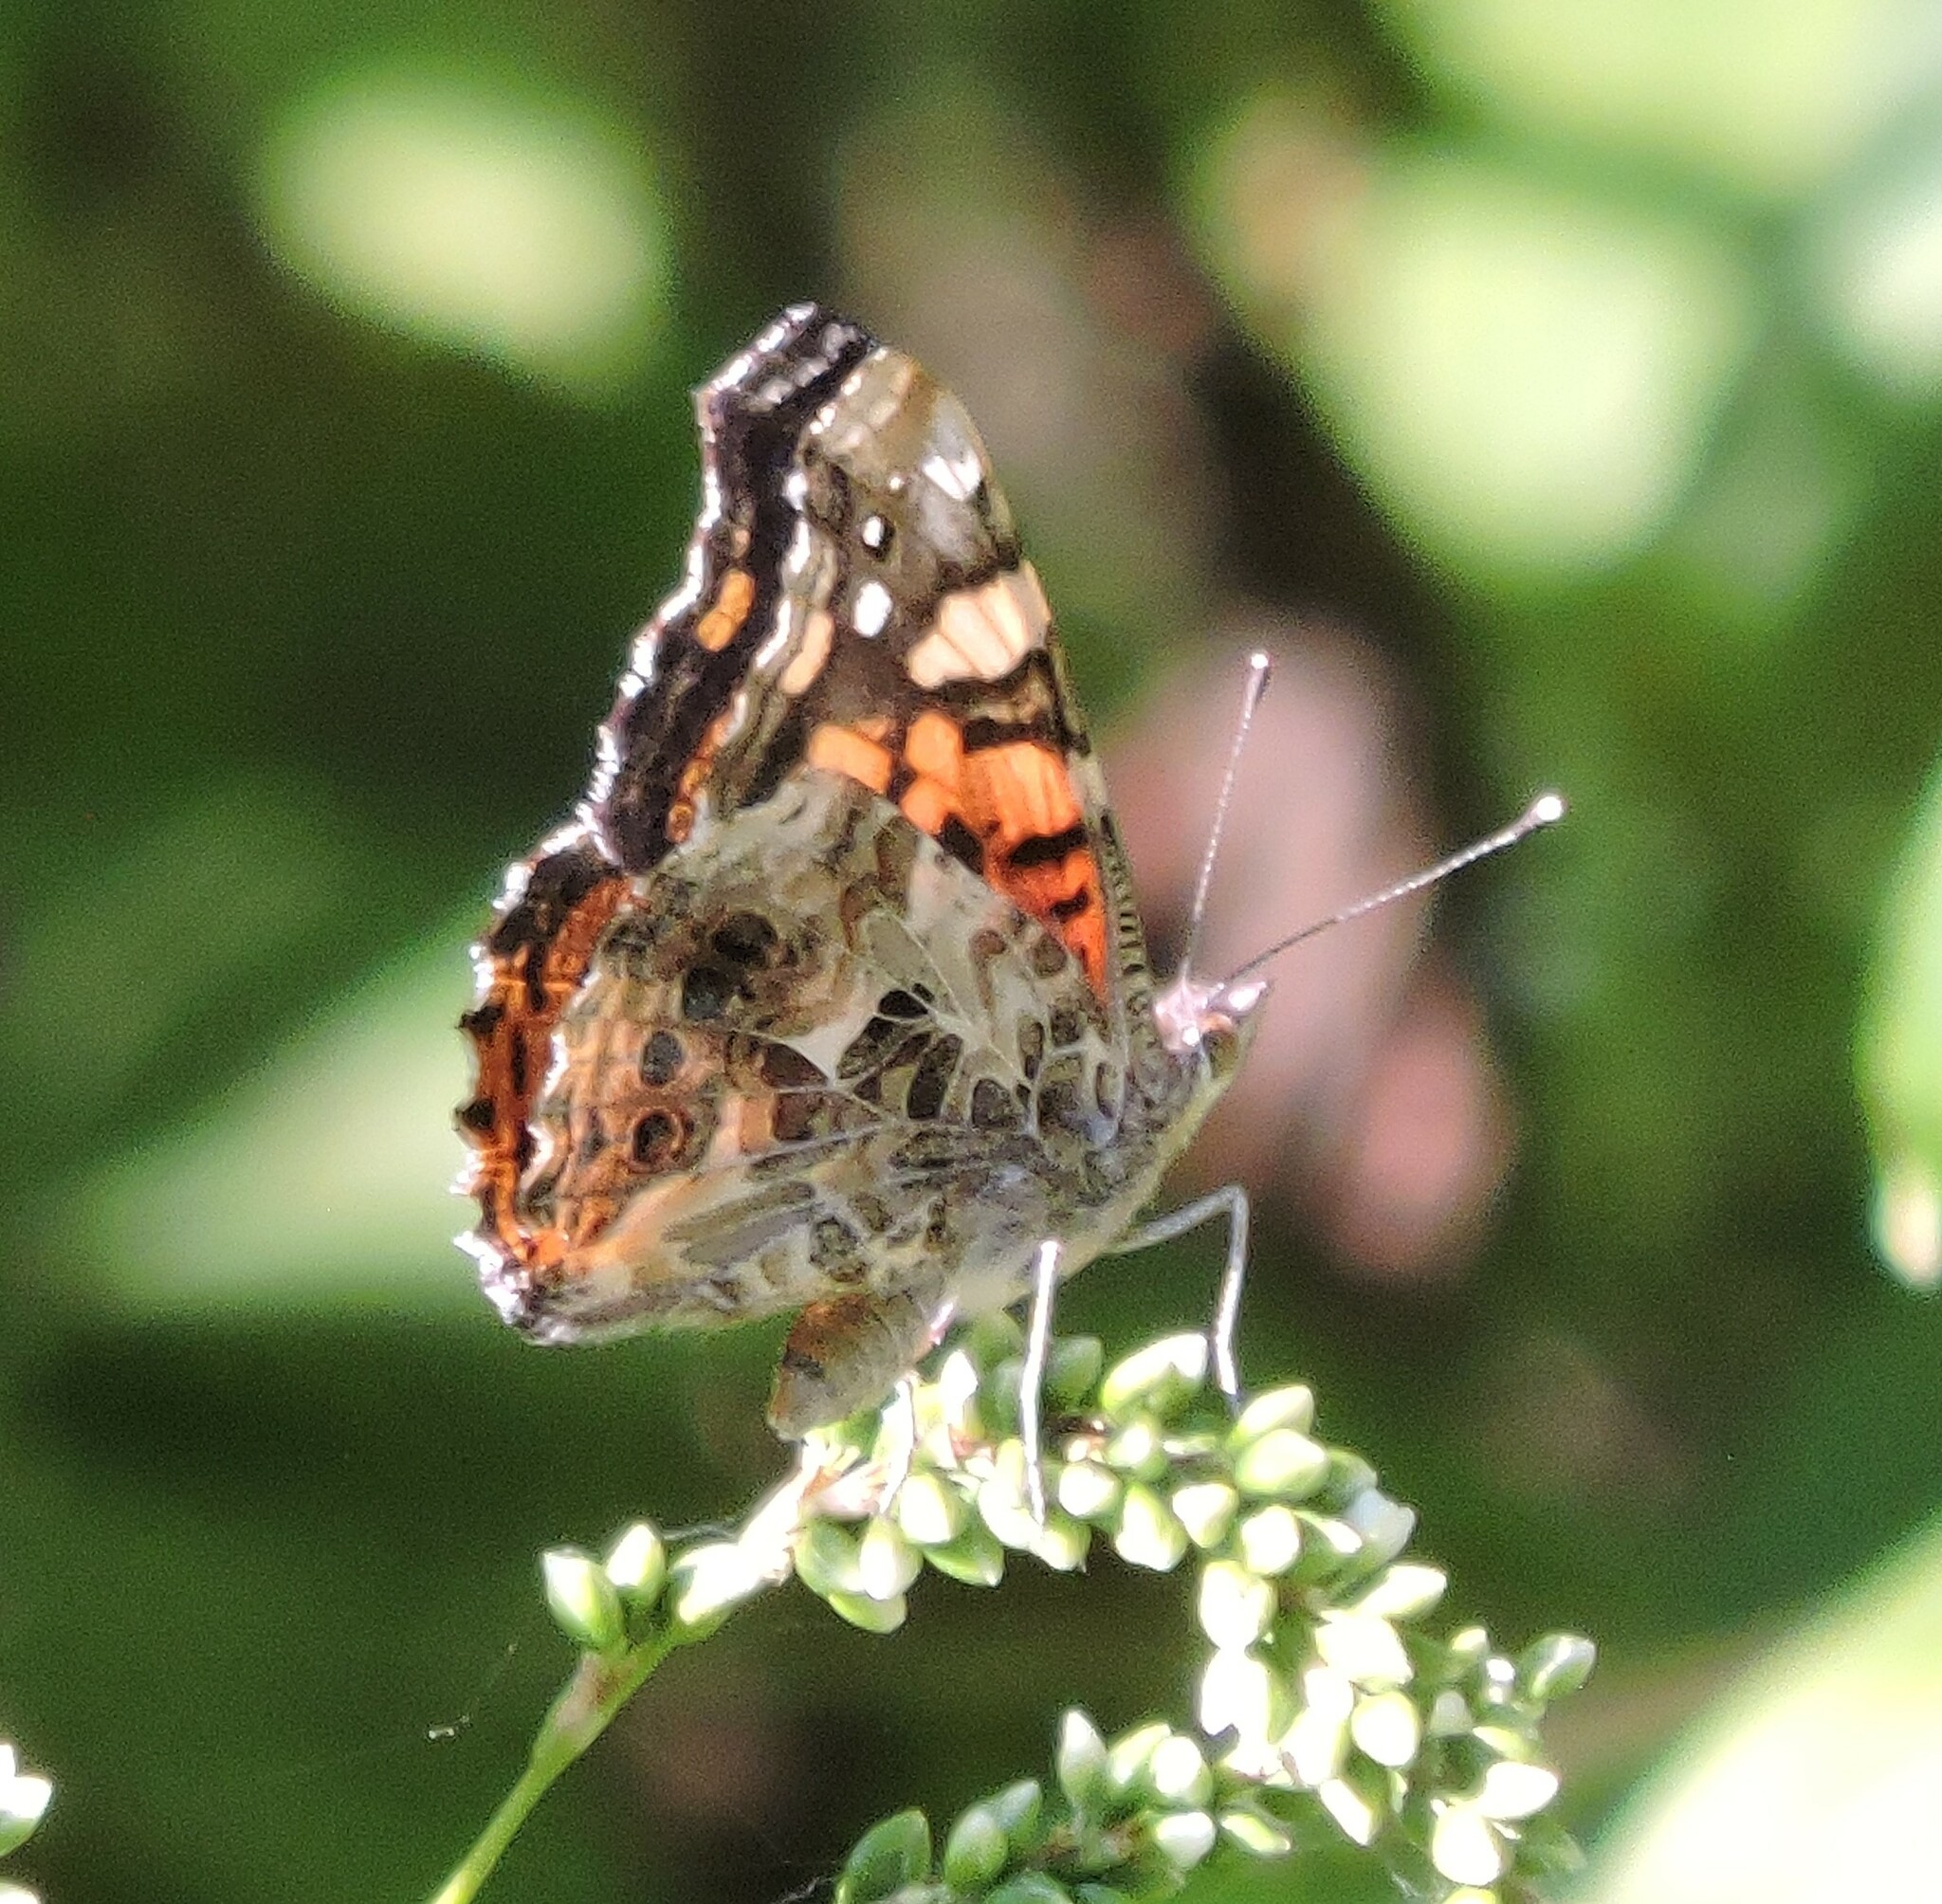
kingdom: Animalia
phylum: Arthropoda
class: Insecta
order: Lepidoptera
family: Nymphalidae
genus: Vanessa
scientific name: Vanessa annabella
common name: West coast lady
